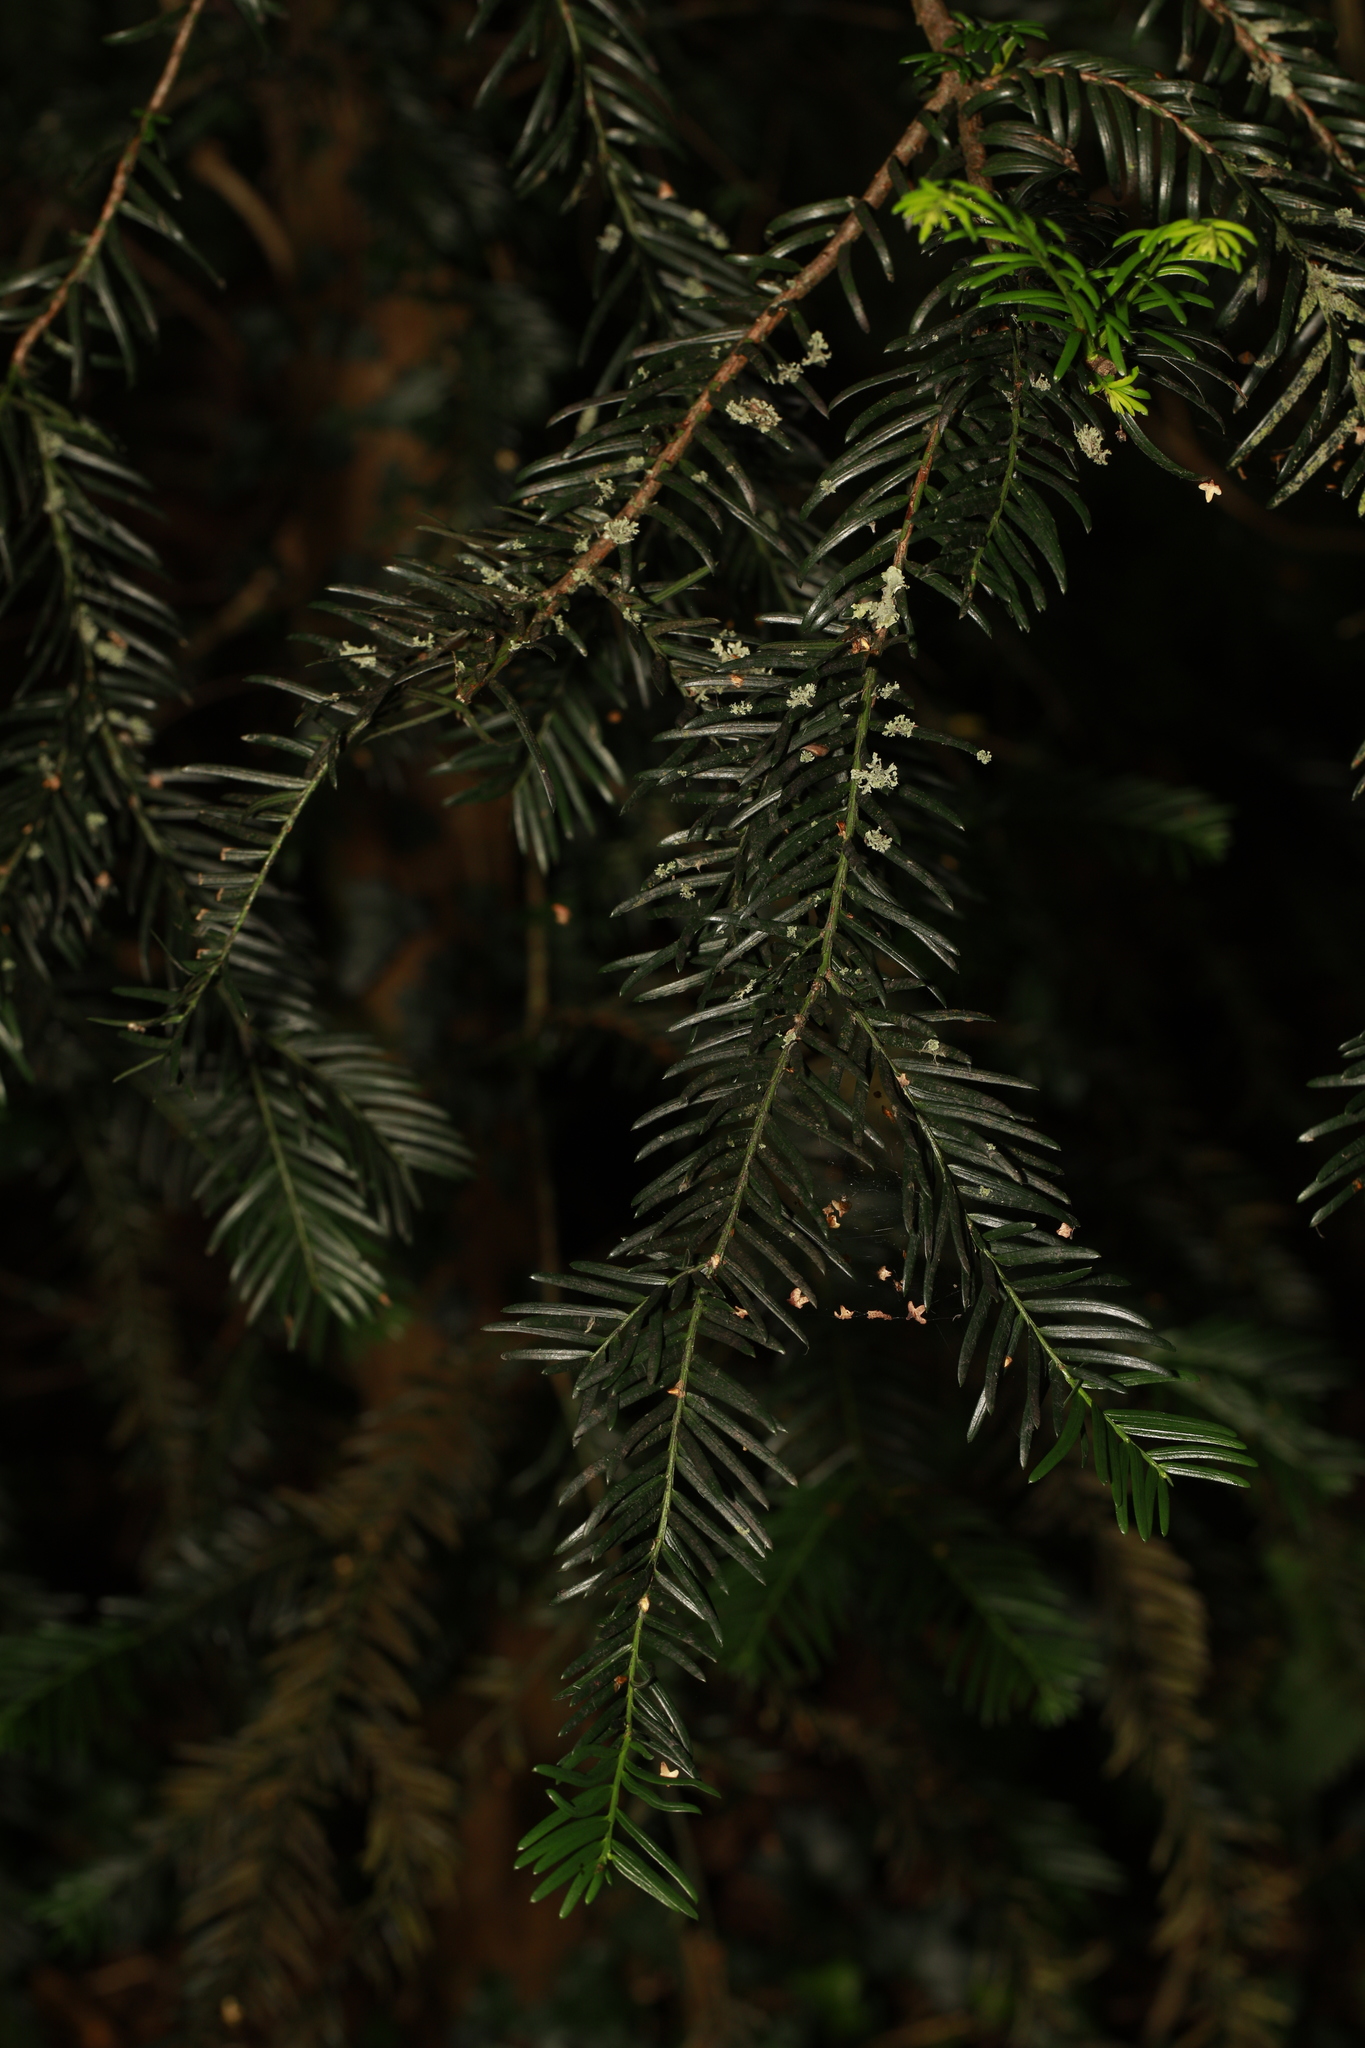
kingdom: Plantae
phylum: Tracheophyta
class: Pinopsida
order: Pinales
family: Taxaceae
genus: Taxus
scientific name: Taxus baccata
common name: Yew
